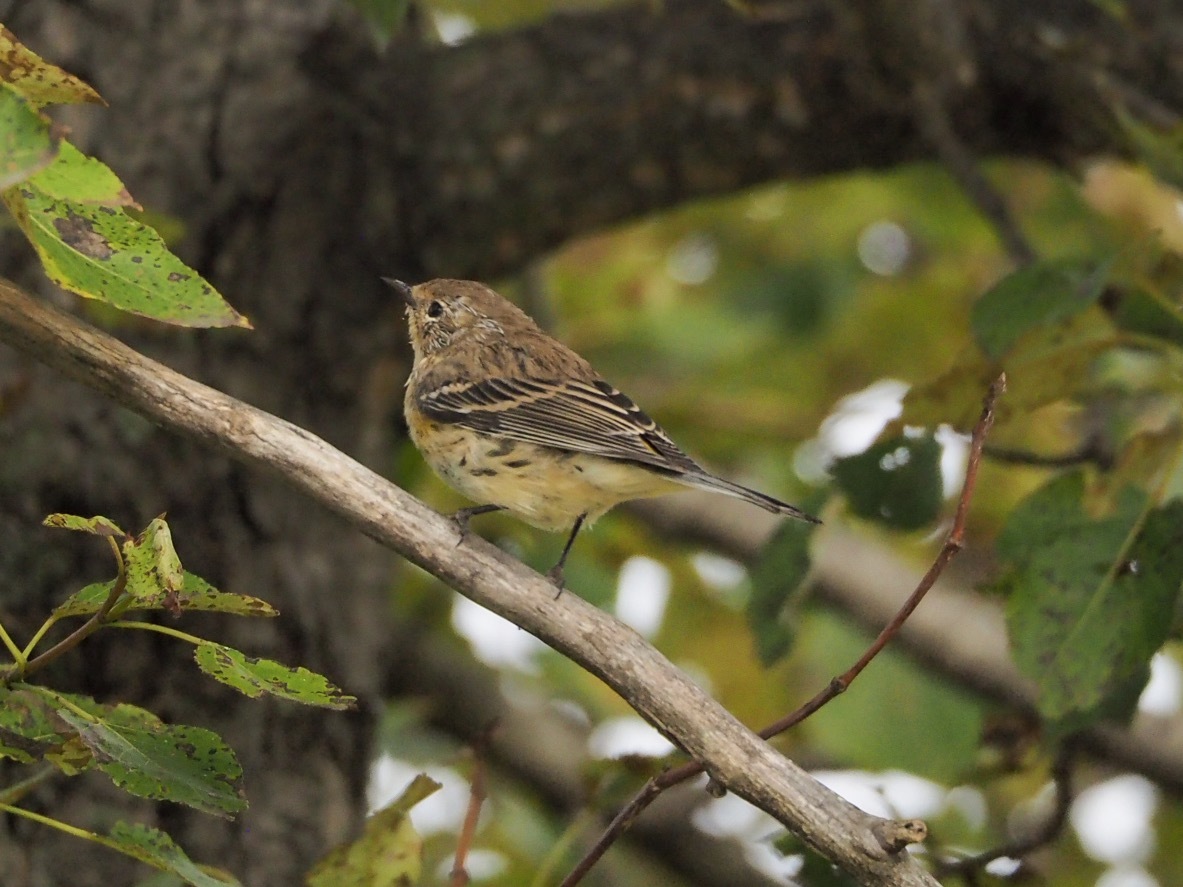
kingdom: Animalia
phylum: Chordata
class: Aves
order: Passeriformes
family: Parulidae
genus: Setophaga
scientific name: Setophaga coronata
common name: Myrtle warbler
